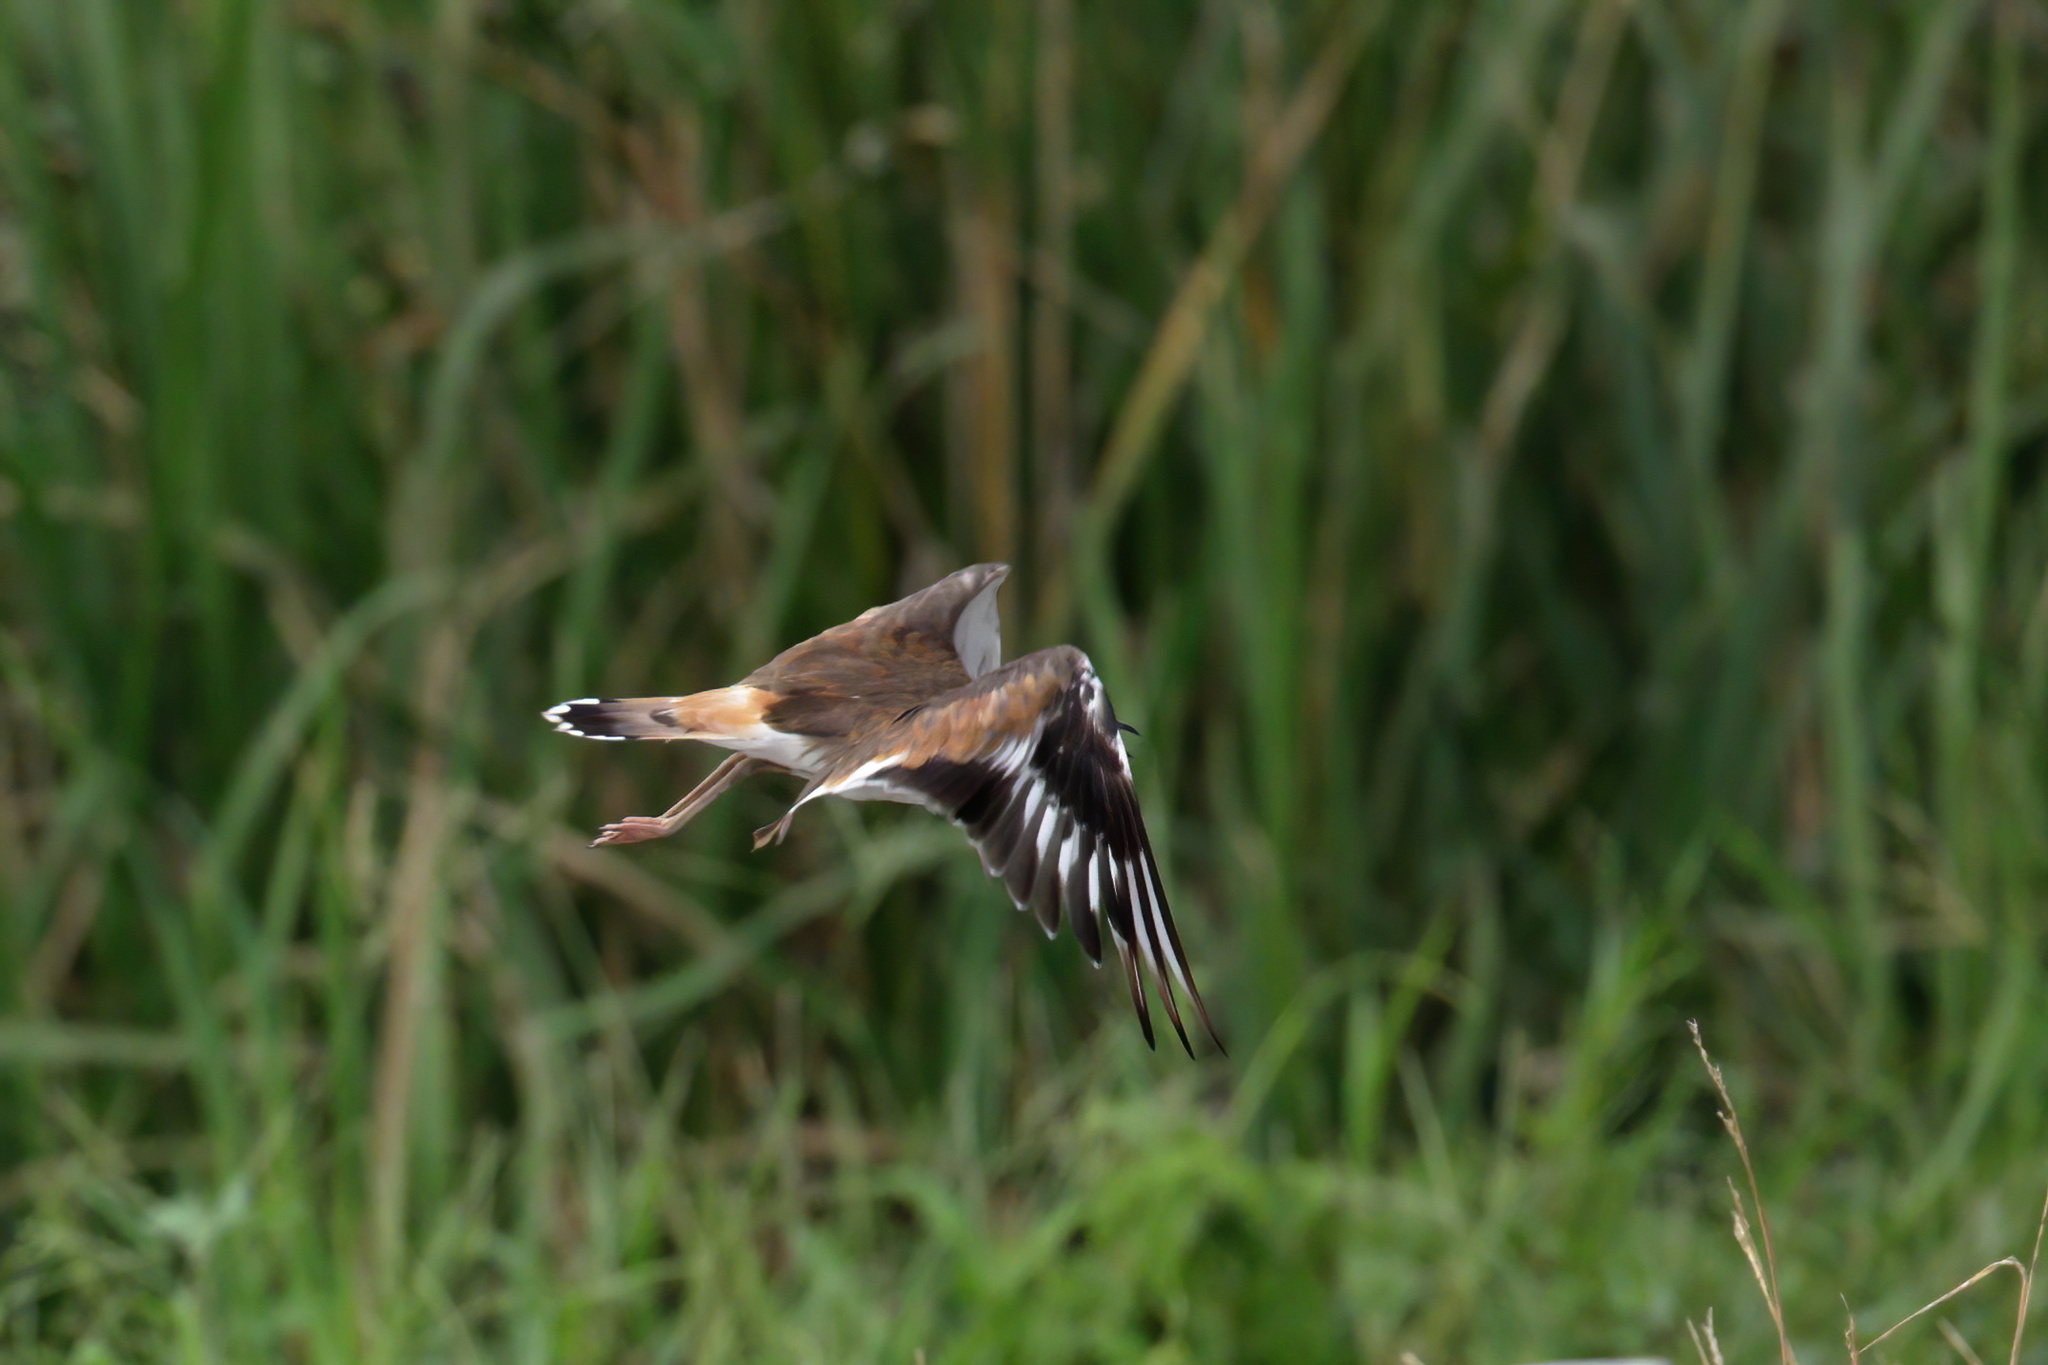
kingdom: Animalia
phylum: Chordata
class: Aves
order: Charadriiformes
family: Charadriidae
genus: Charadrius
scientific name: Charadrius vociferus
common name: Killdeer
